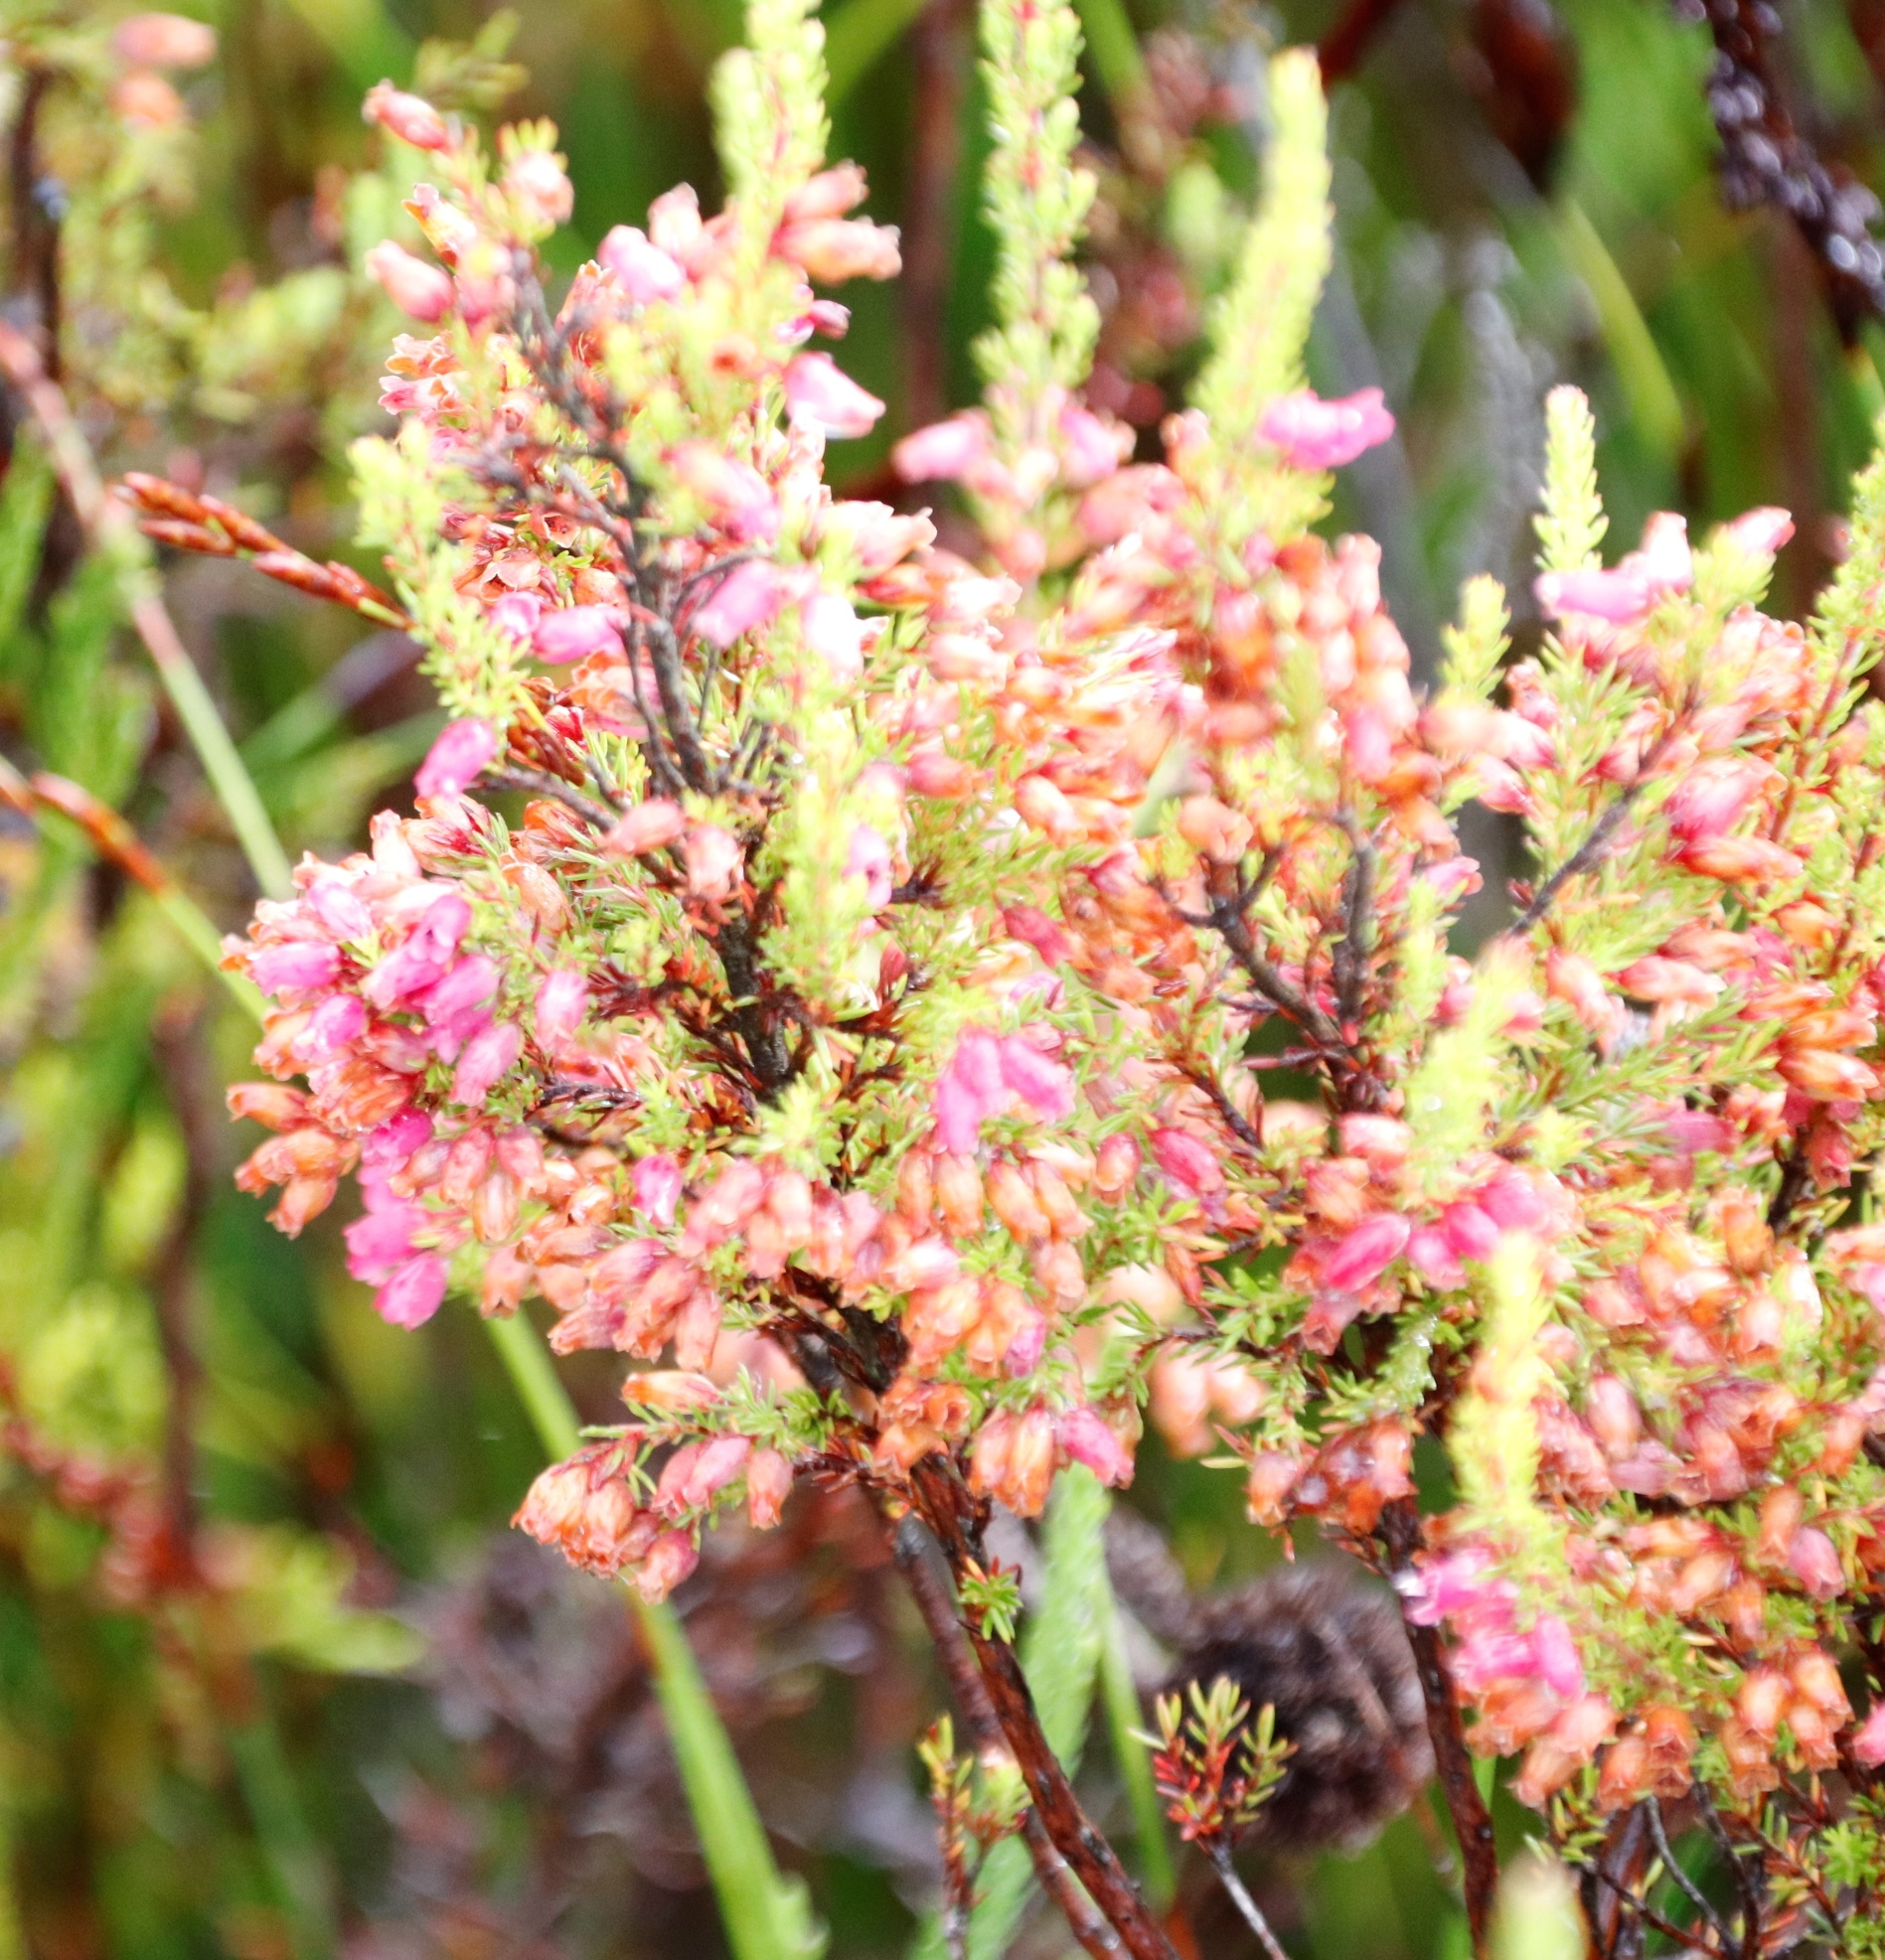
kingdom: Plantae
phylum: Tracheophyta
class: Magnoliopsida
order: Ericales
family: Ericaceae
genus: Erica
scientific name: Erica sitiens
